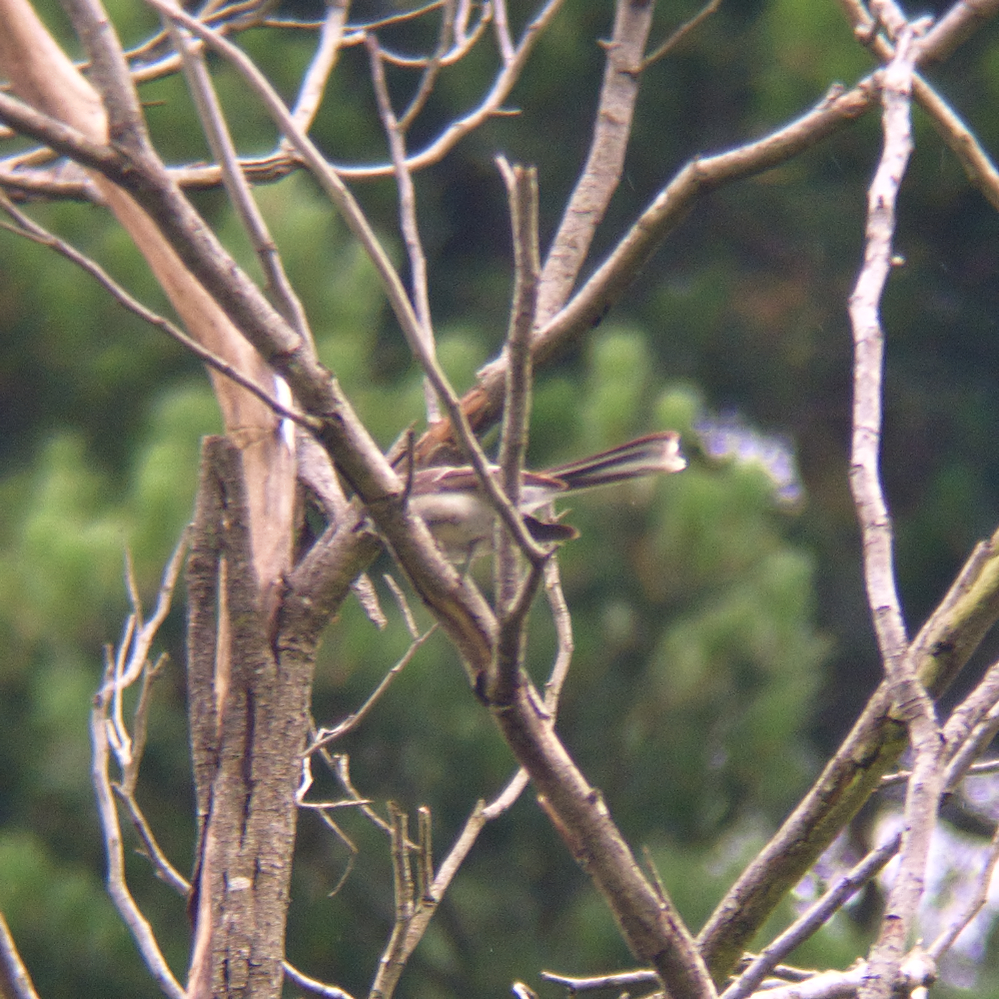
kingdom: Animalia
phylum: Chordata
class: Aves
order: Passeriformes
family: Rhipiduridae
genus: Rhipidura
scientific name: Rhipidura albiscapa
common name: Grey fantail
